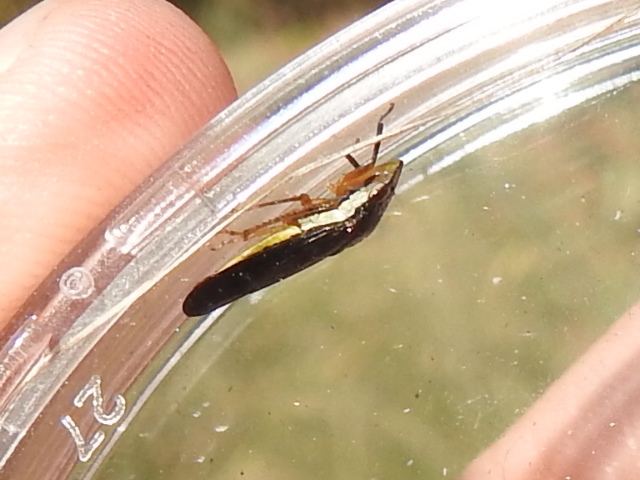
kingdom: Animalia
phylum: Arthropoda
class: Insecta
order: Hemiptera
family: Cicadellidae
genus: Homalodisca
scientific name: Homalodisca insolita
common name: Johnson grass sharpshooter
